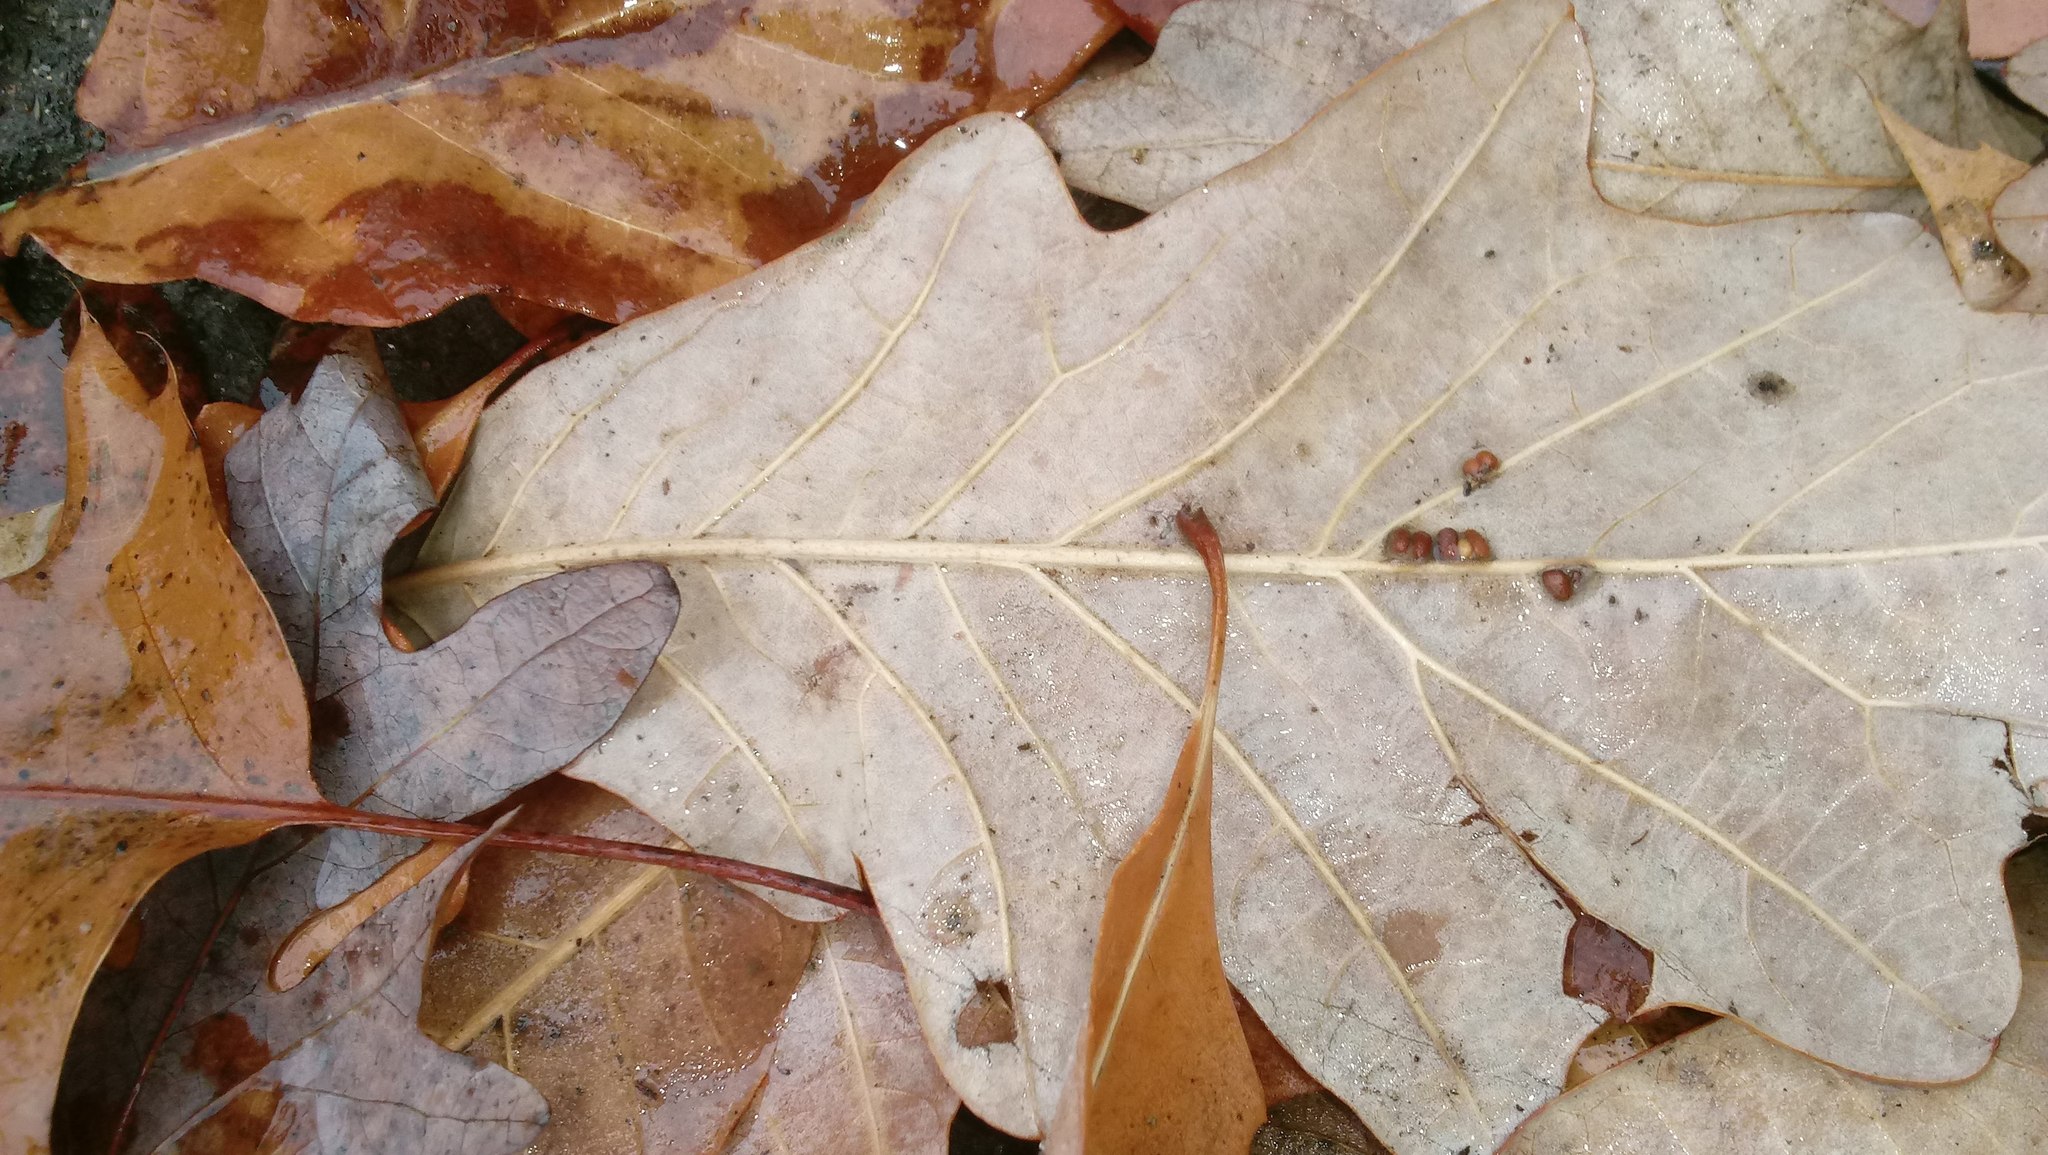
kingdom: Animalia
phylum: Arthropoda
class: Insecta
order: Hymenoptera
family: Cynipidae
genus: Andricus
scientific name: Andricus Druon ignotum
